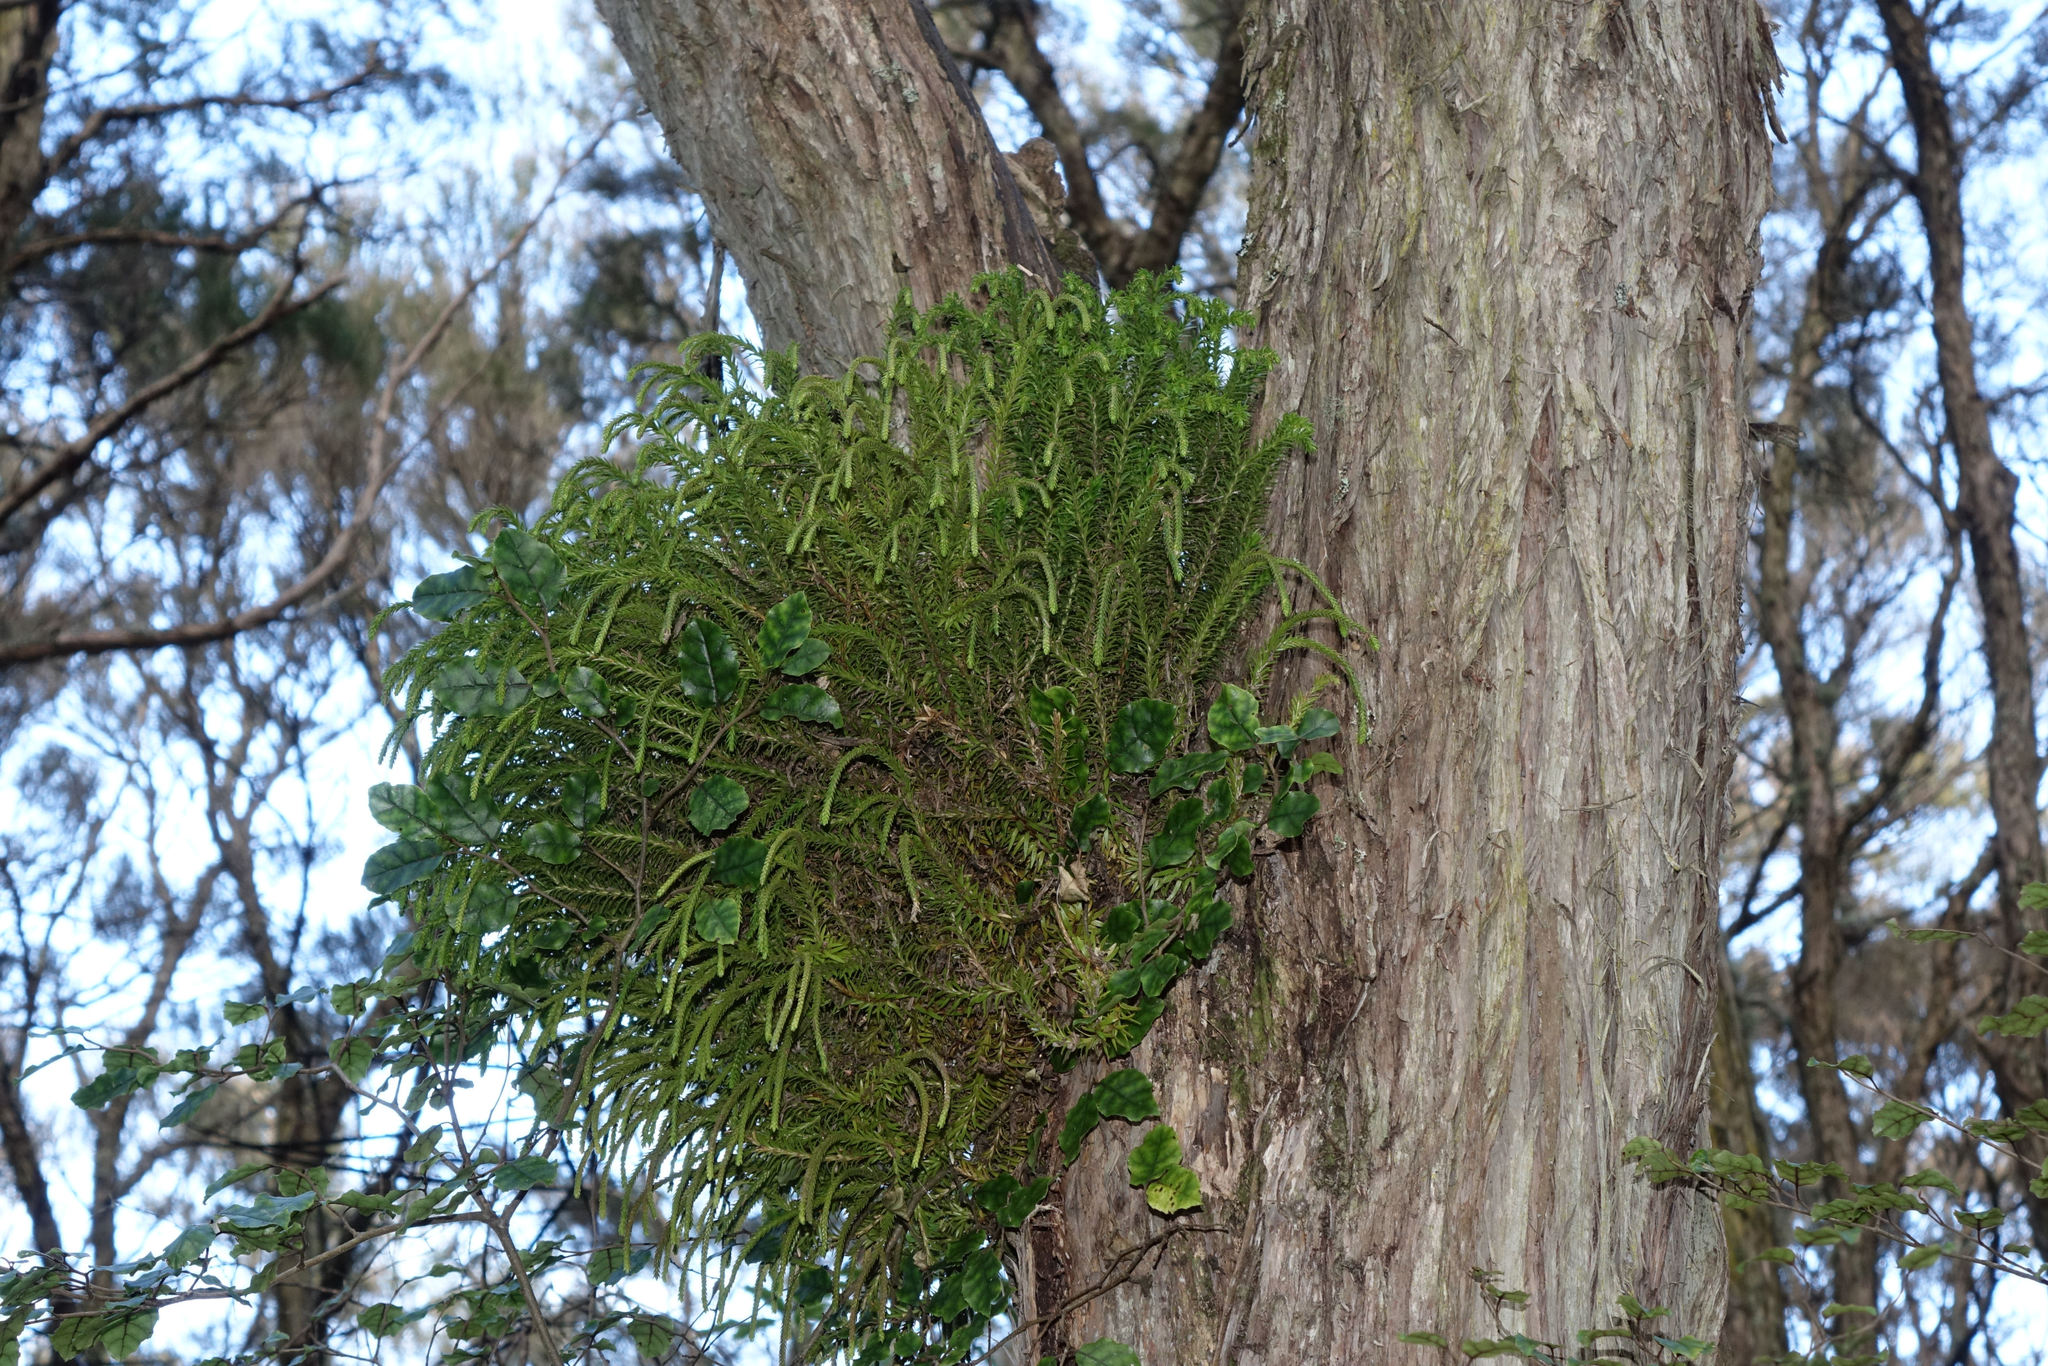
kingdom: Plantae
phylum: Tracheophyta
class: Lycopodiopsida
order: Lycopodiales
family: Lycopodiaceae
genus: Phlegmariurus
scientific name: Phlegmariurus varius
